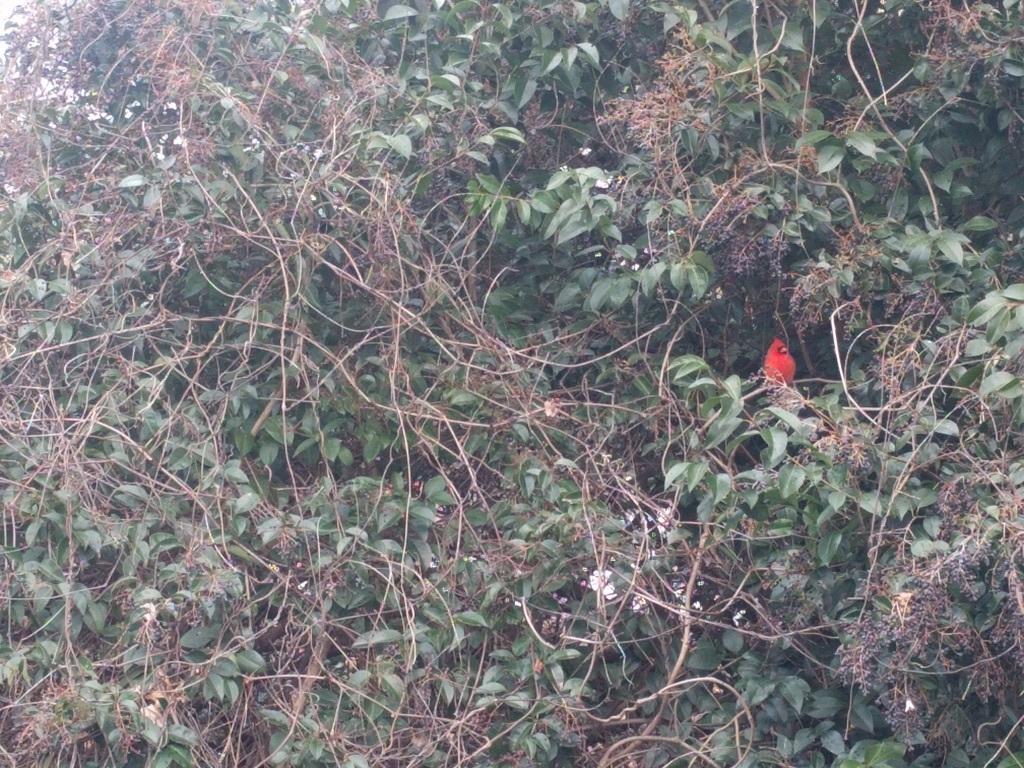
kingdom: Animalia
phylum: Chordata
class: Aves
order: Passeriformes
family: Cardinalidae
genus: Cardinalis
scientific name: Cardinalis cardinalis
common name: Northern cardinal
